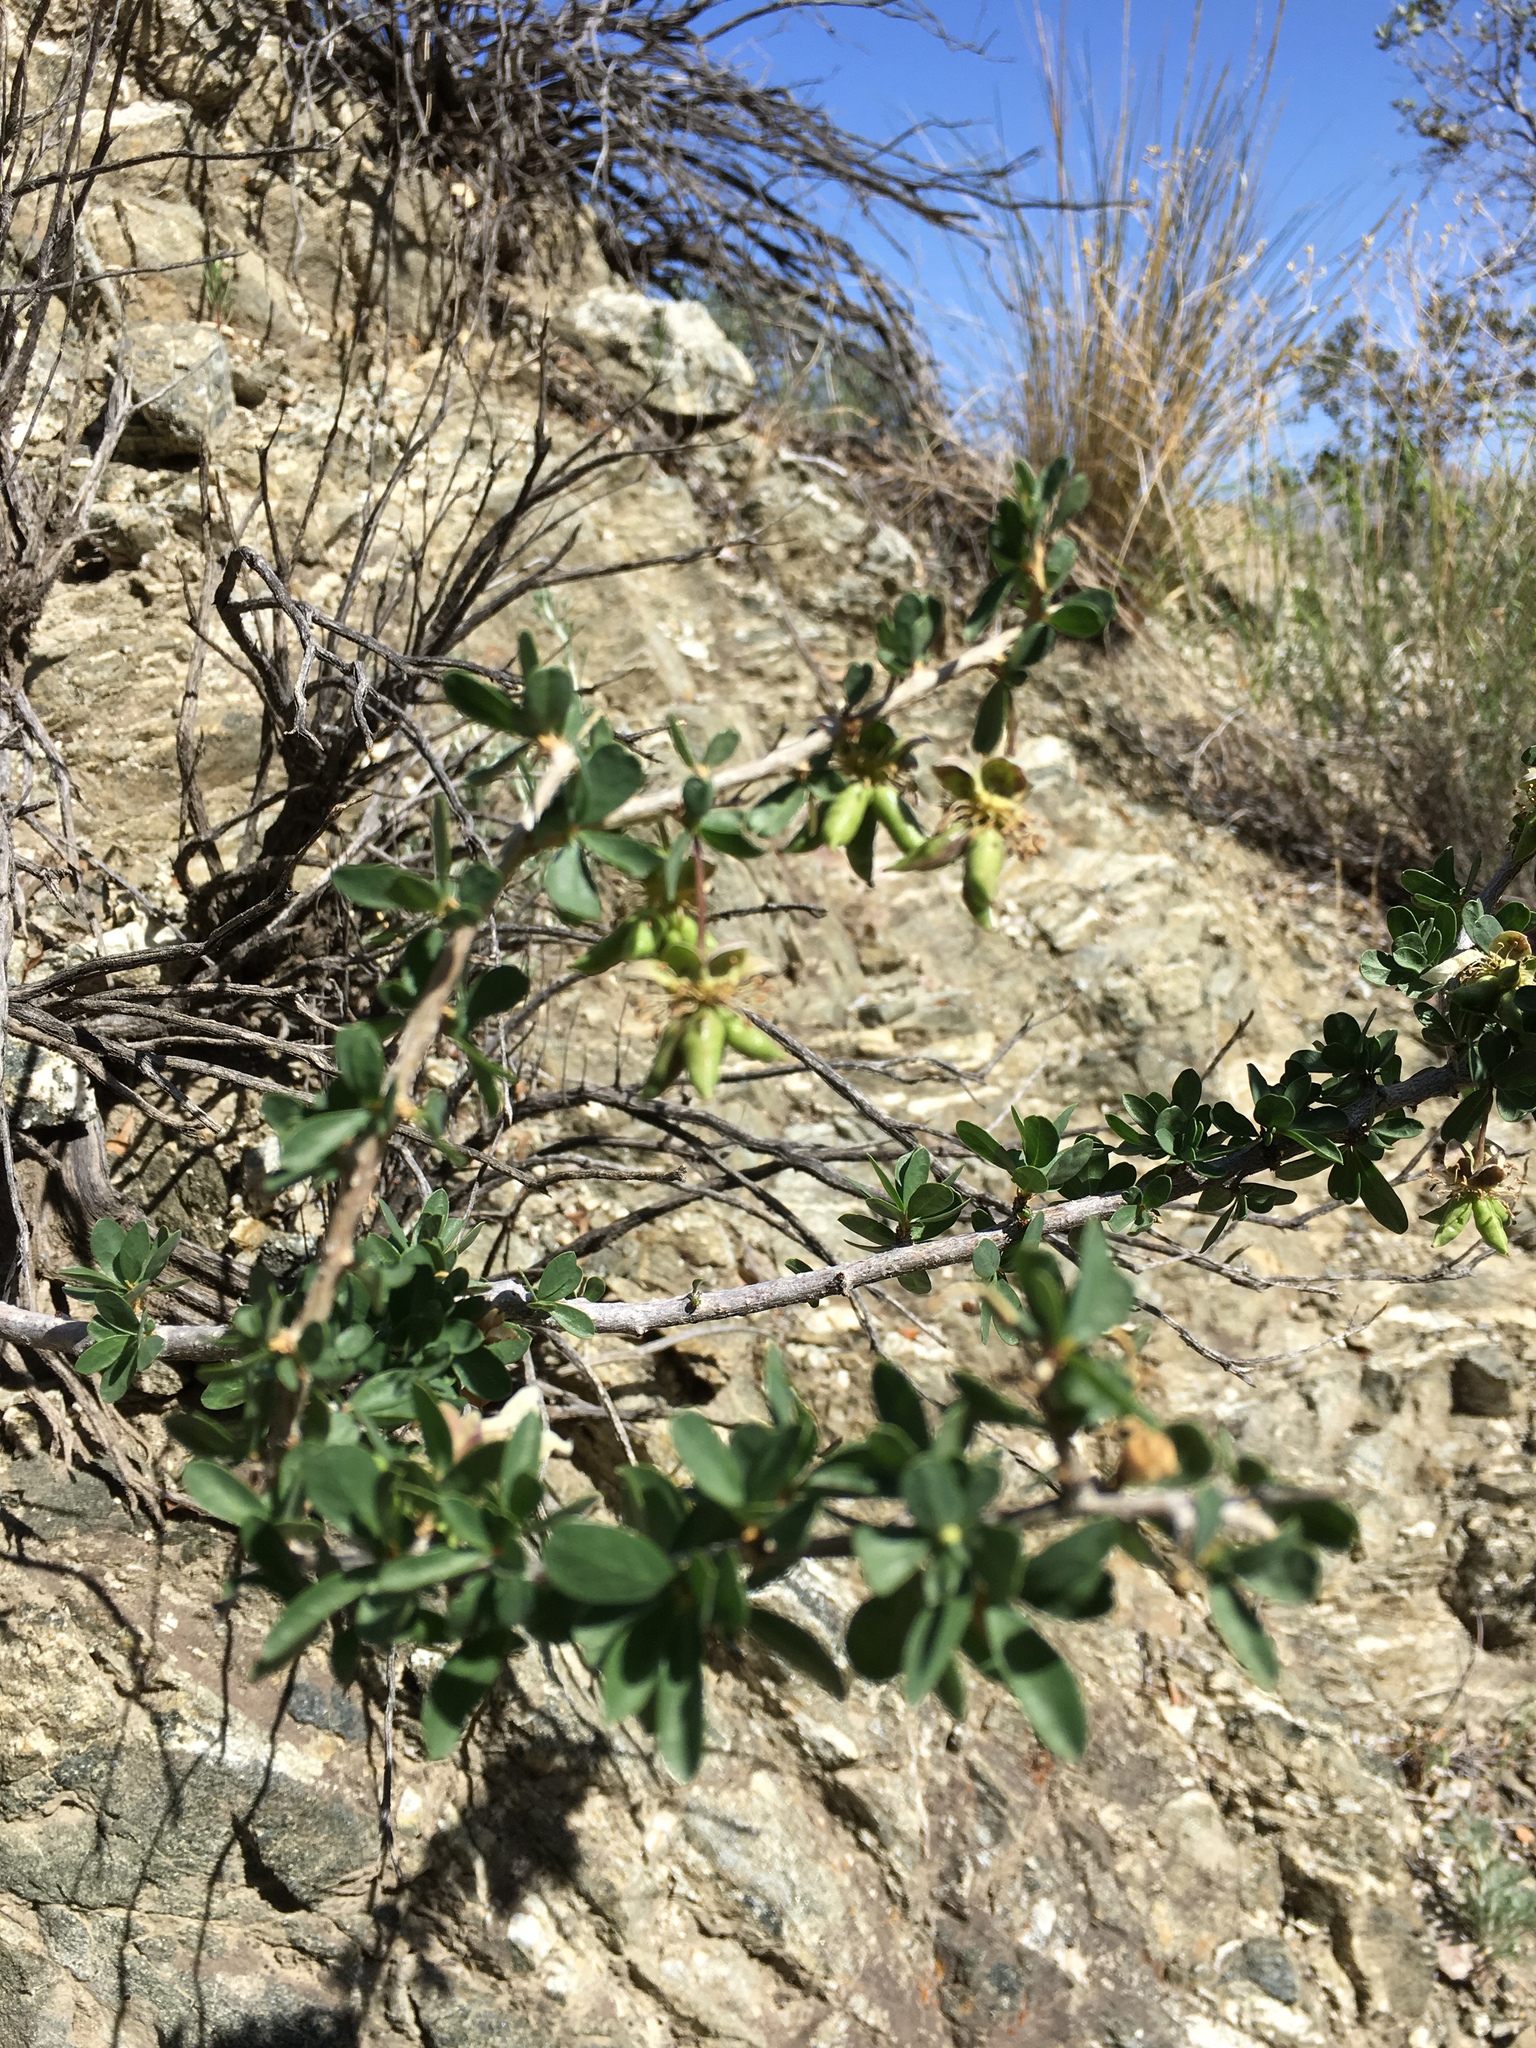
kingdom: Plantae
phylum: Tracheophyta
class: Magnoliopsida
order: Crossosomatales
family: Crossosomataceae
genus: Crossosoma
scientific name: Crossosoma bigelovii
